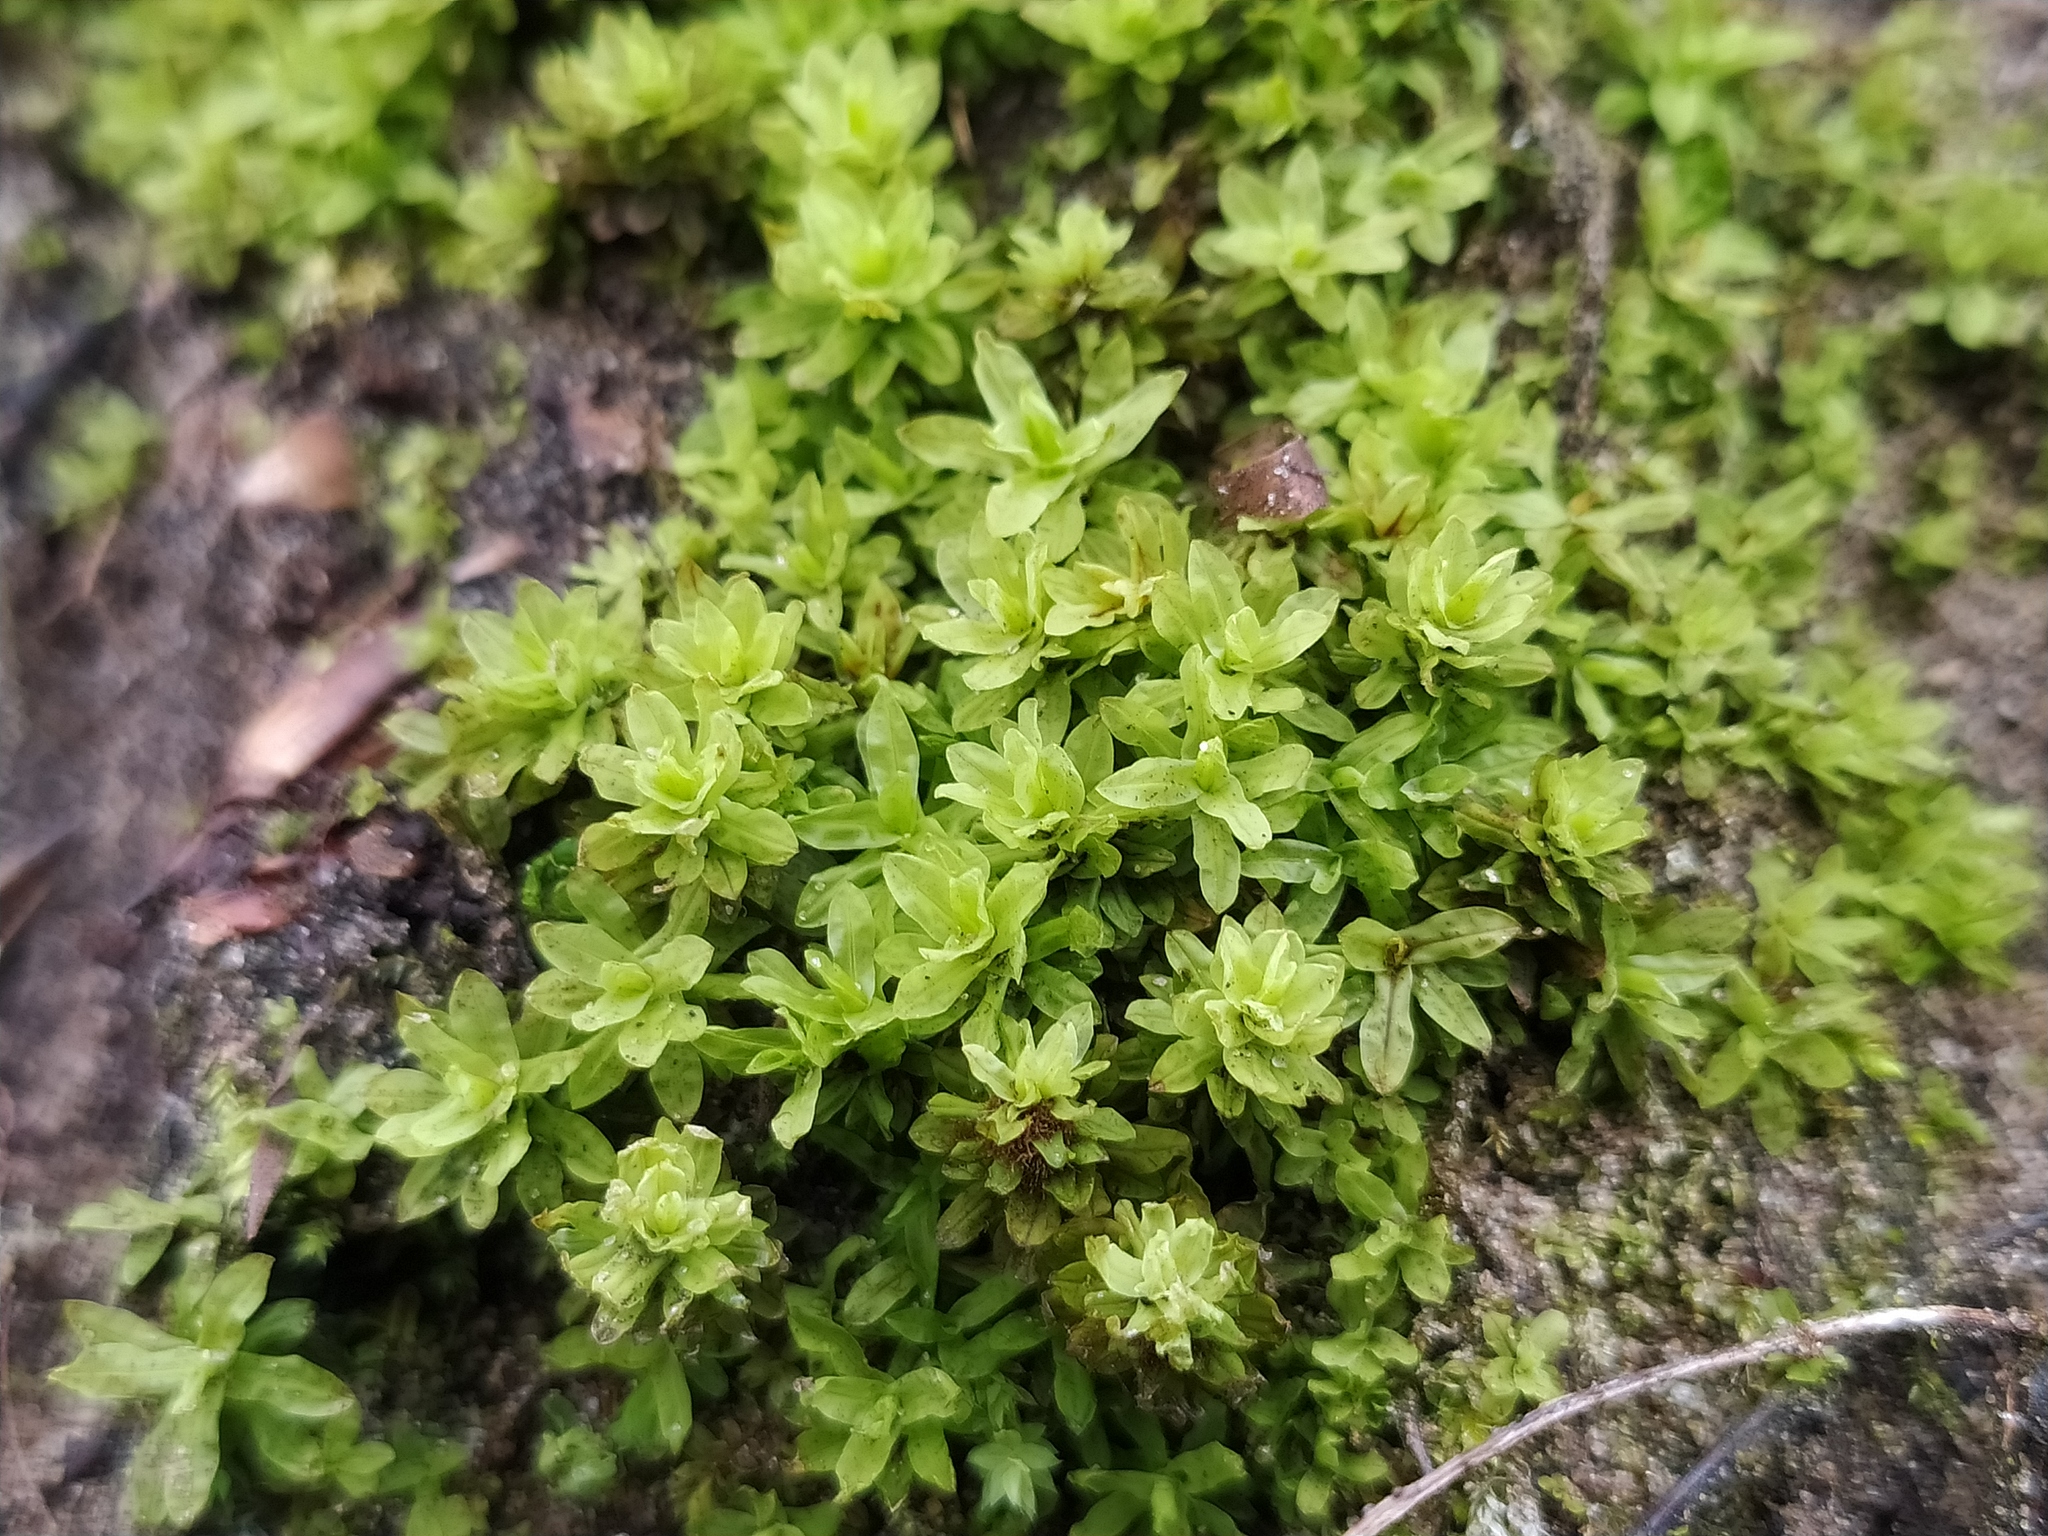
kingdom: Plantae
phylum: Bryophyta
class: Bryopsida
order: Encalyptales
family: Encalyptaceae
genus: Encalypta
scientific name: Encalypta streptocarpa
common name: Spiral extinguisher-moss
